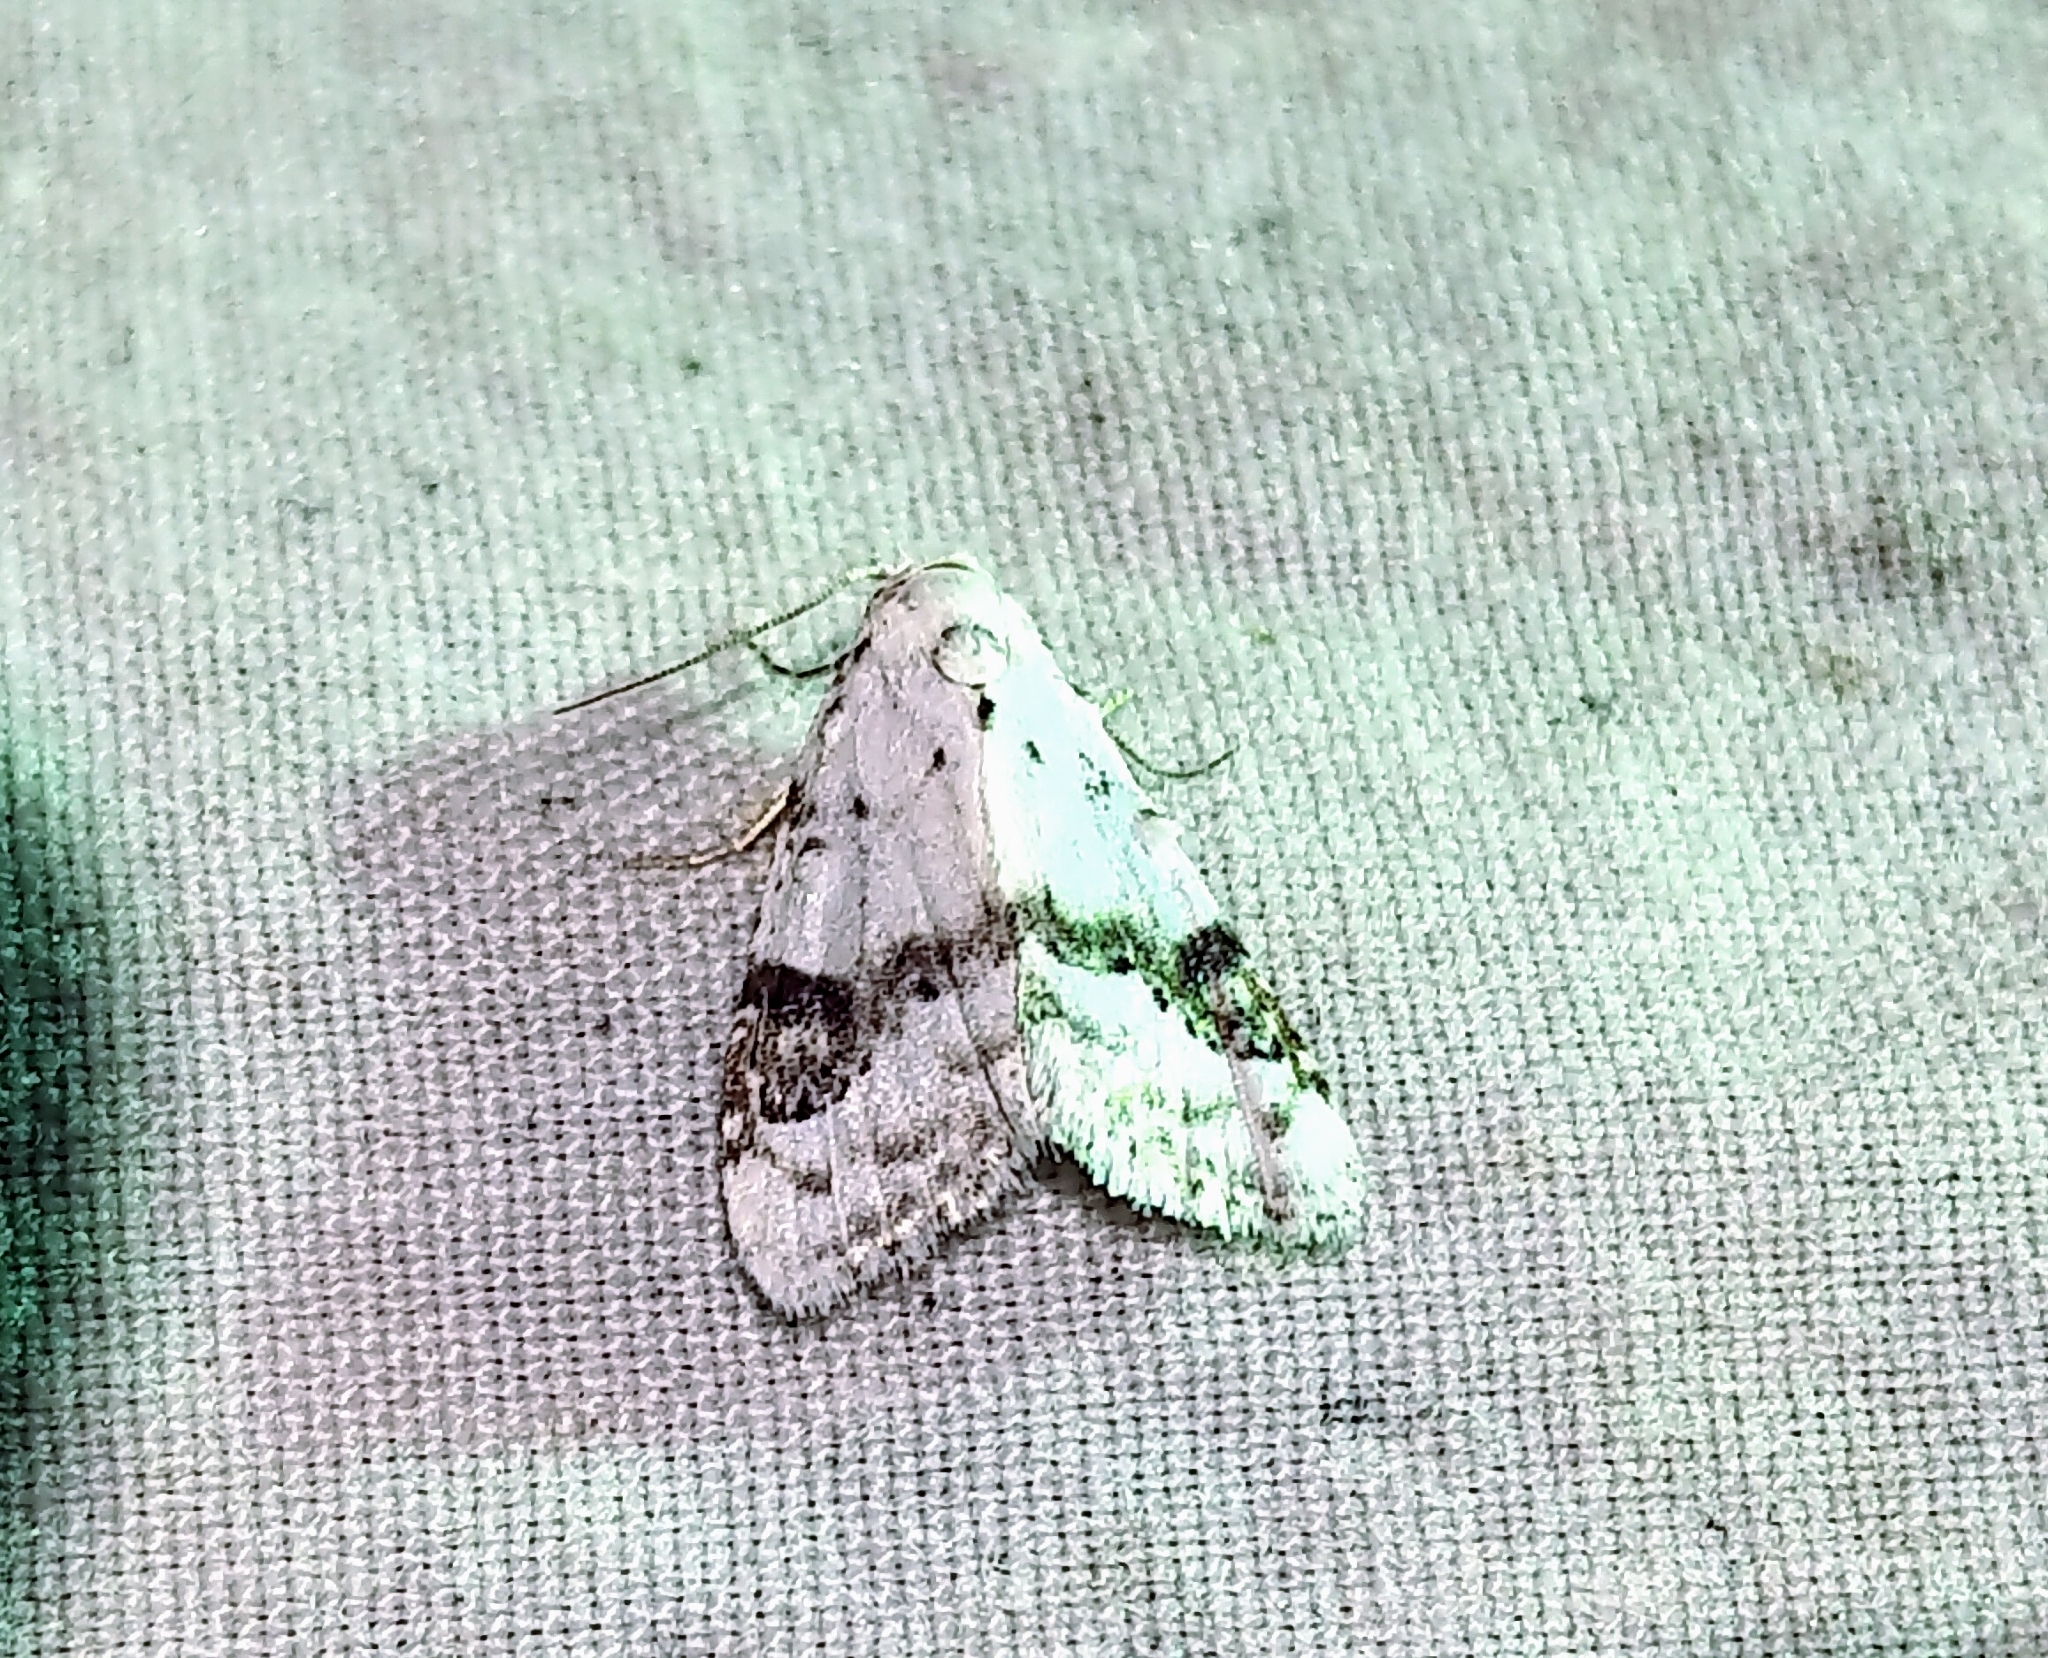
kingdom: Animalia
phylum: Arthropoda
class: Insecta
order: Lepidoptera
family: Nolidae
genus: Nola
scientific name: Nola cilicoides
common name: Blurry-patched nola moth
